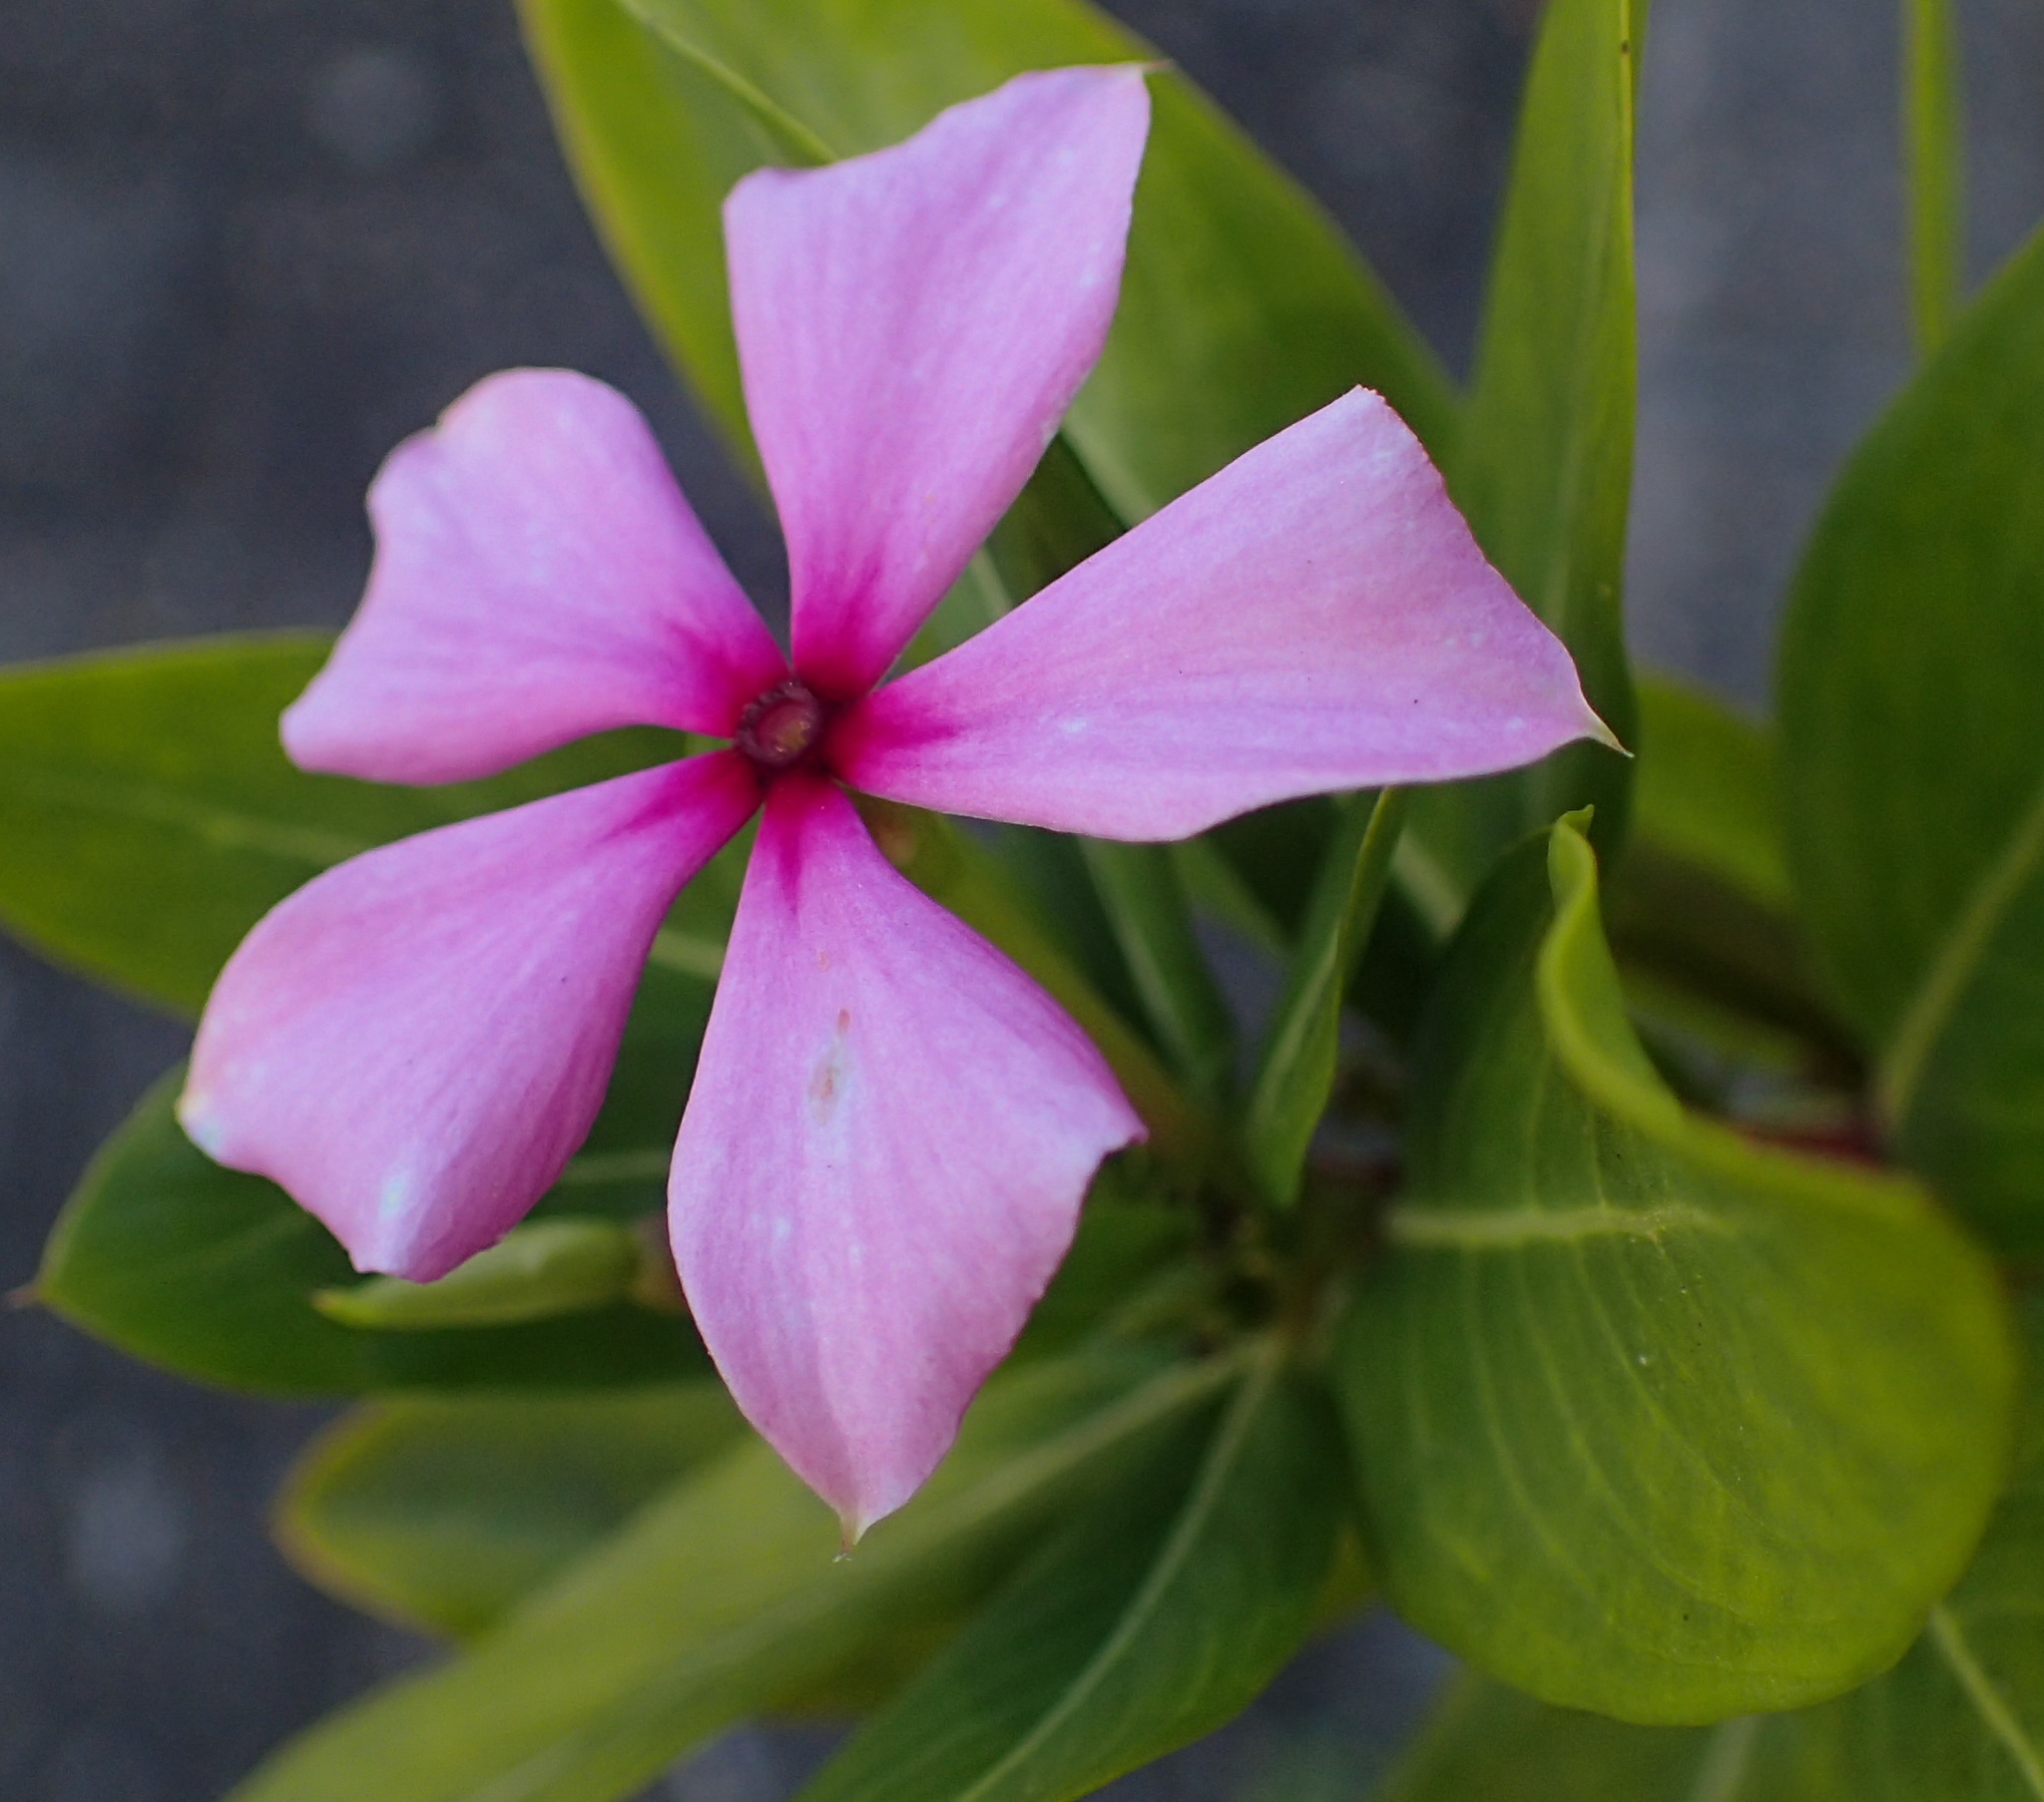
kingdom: Plantae
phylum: Tracheophyta
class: Magnoliopsida
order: Gentianales
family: Apocynaceae
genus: Catharanthus
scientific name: Catharanthus roseus
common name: Madagascar periwinkle
